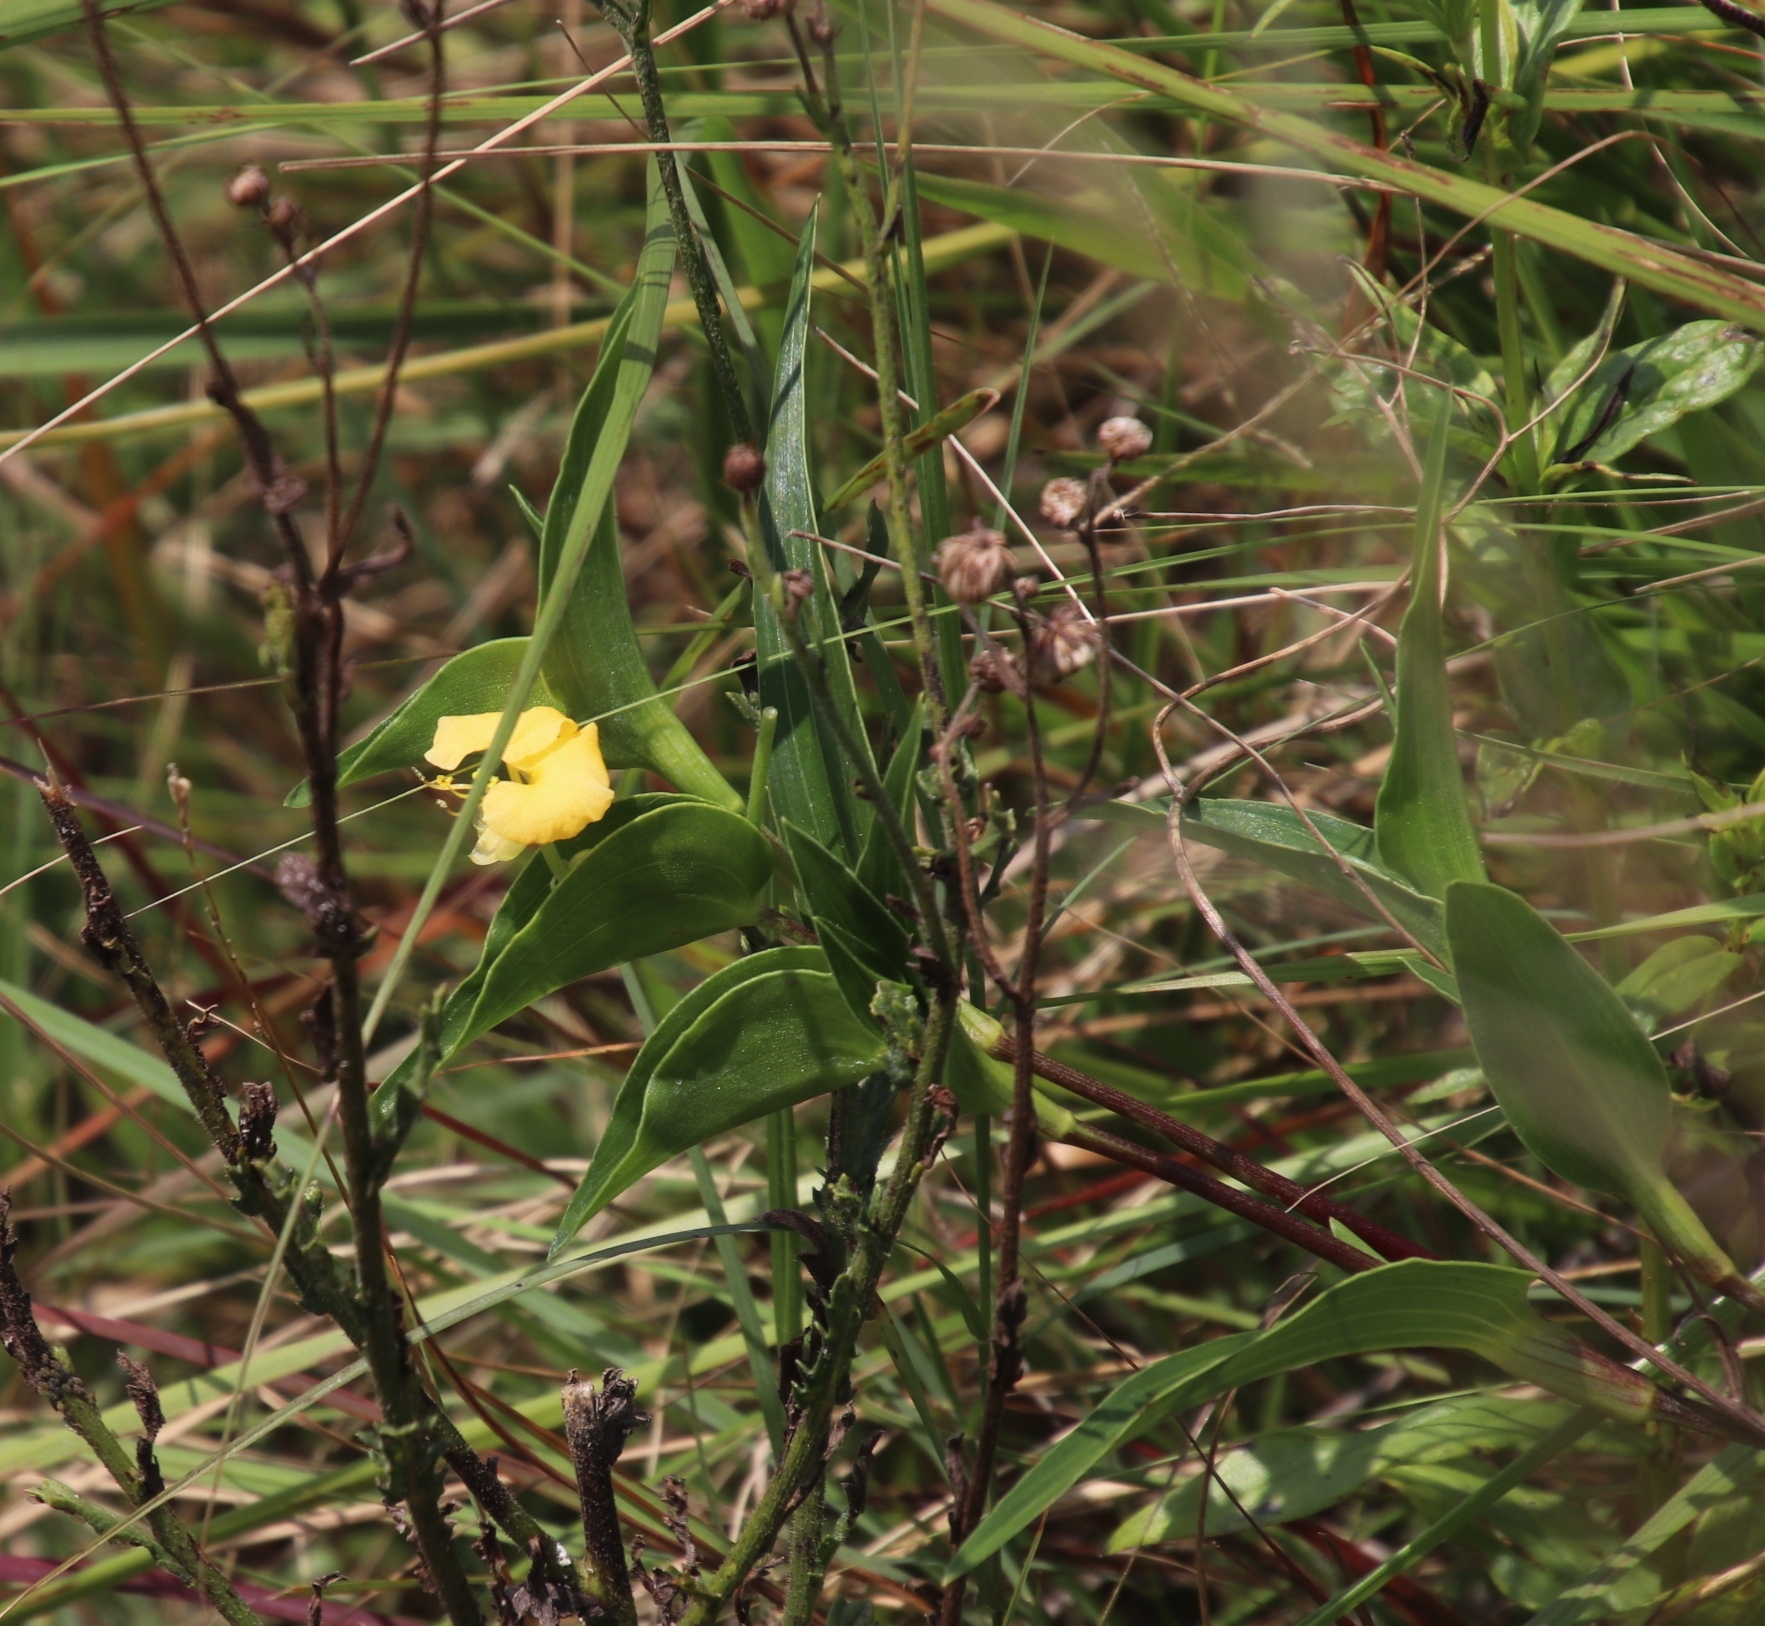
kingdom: Plantae
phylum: Tracheophyta
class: Liliopsida
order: Commelinales
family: Commelinaceae
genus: Commelina
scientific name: Commelina africana
